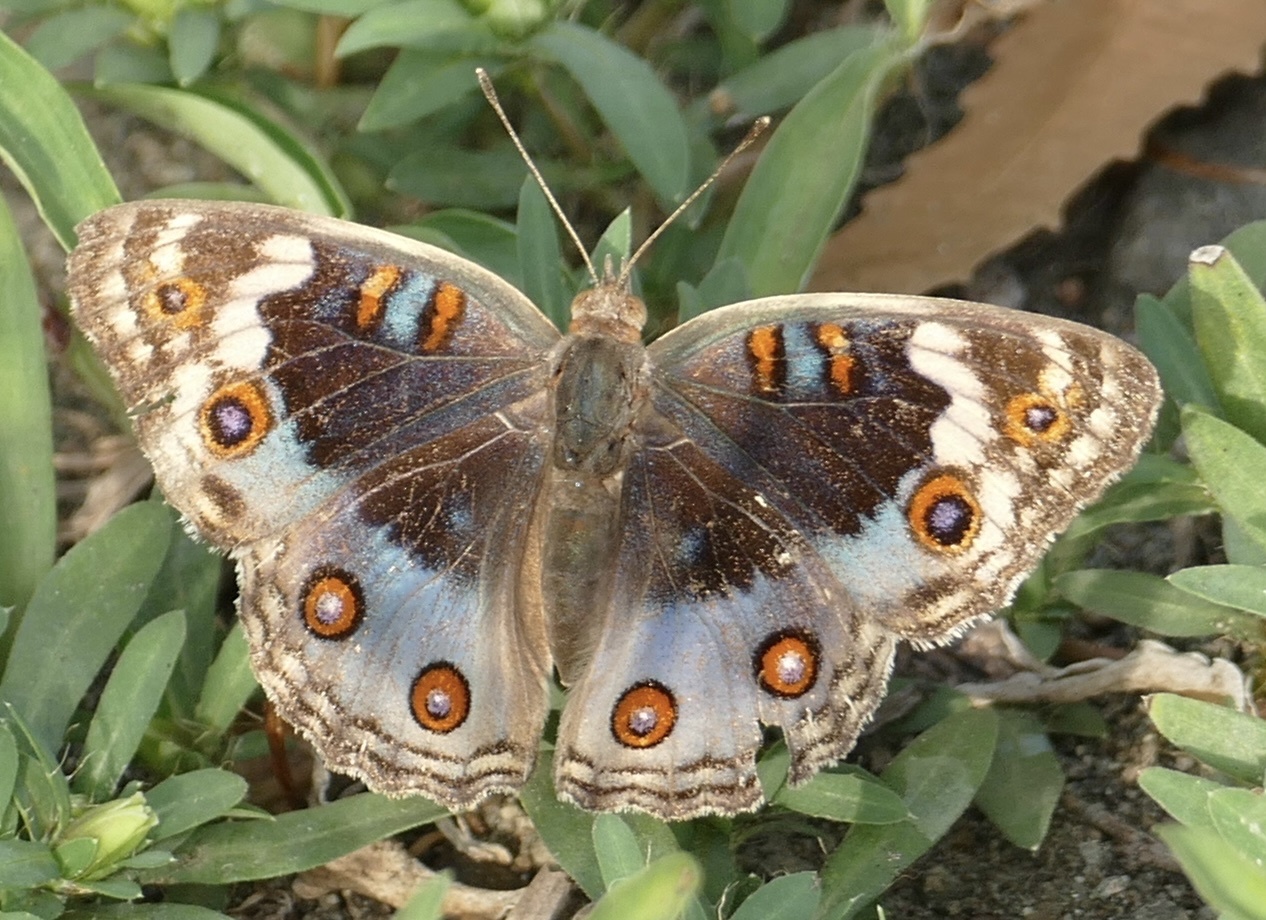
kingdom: Animalia
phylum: Arthropoda
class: Insecta
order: Lepidoptera
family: Nymphalidae
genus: Junonia
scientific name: Junonia orithya
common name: Blue pansy
